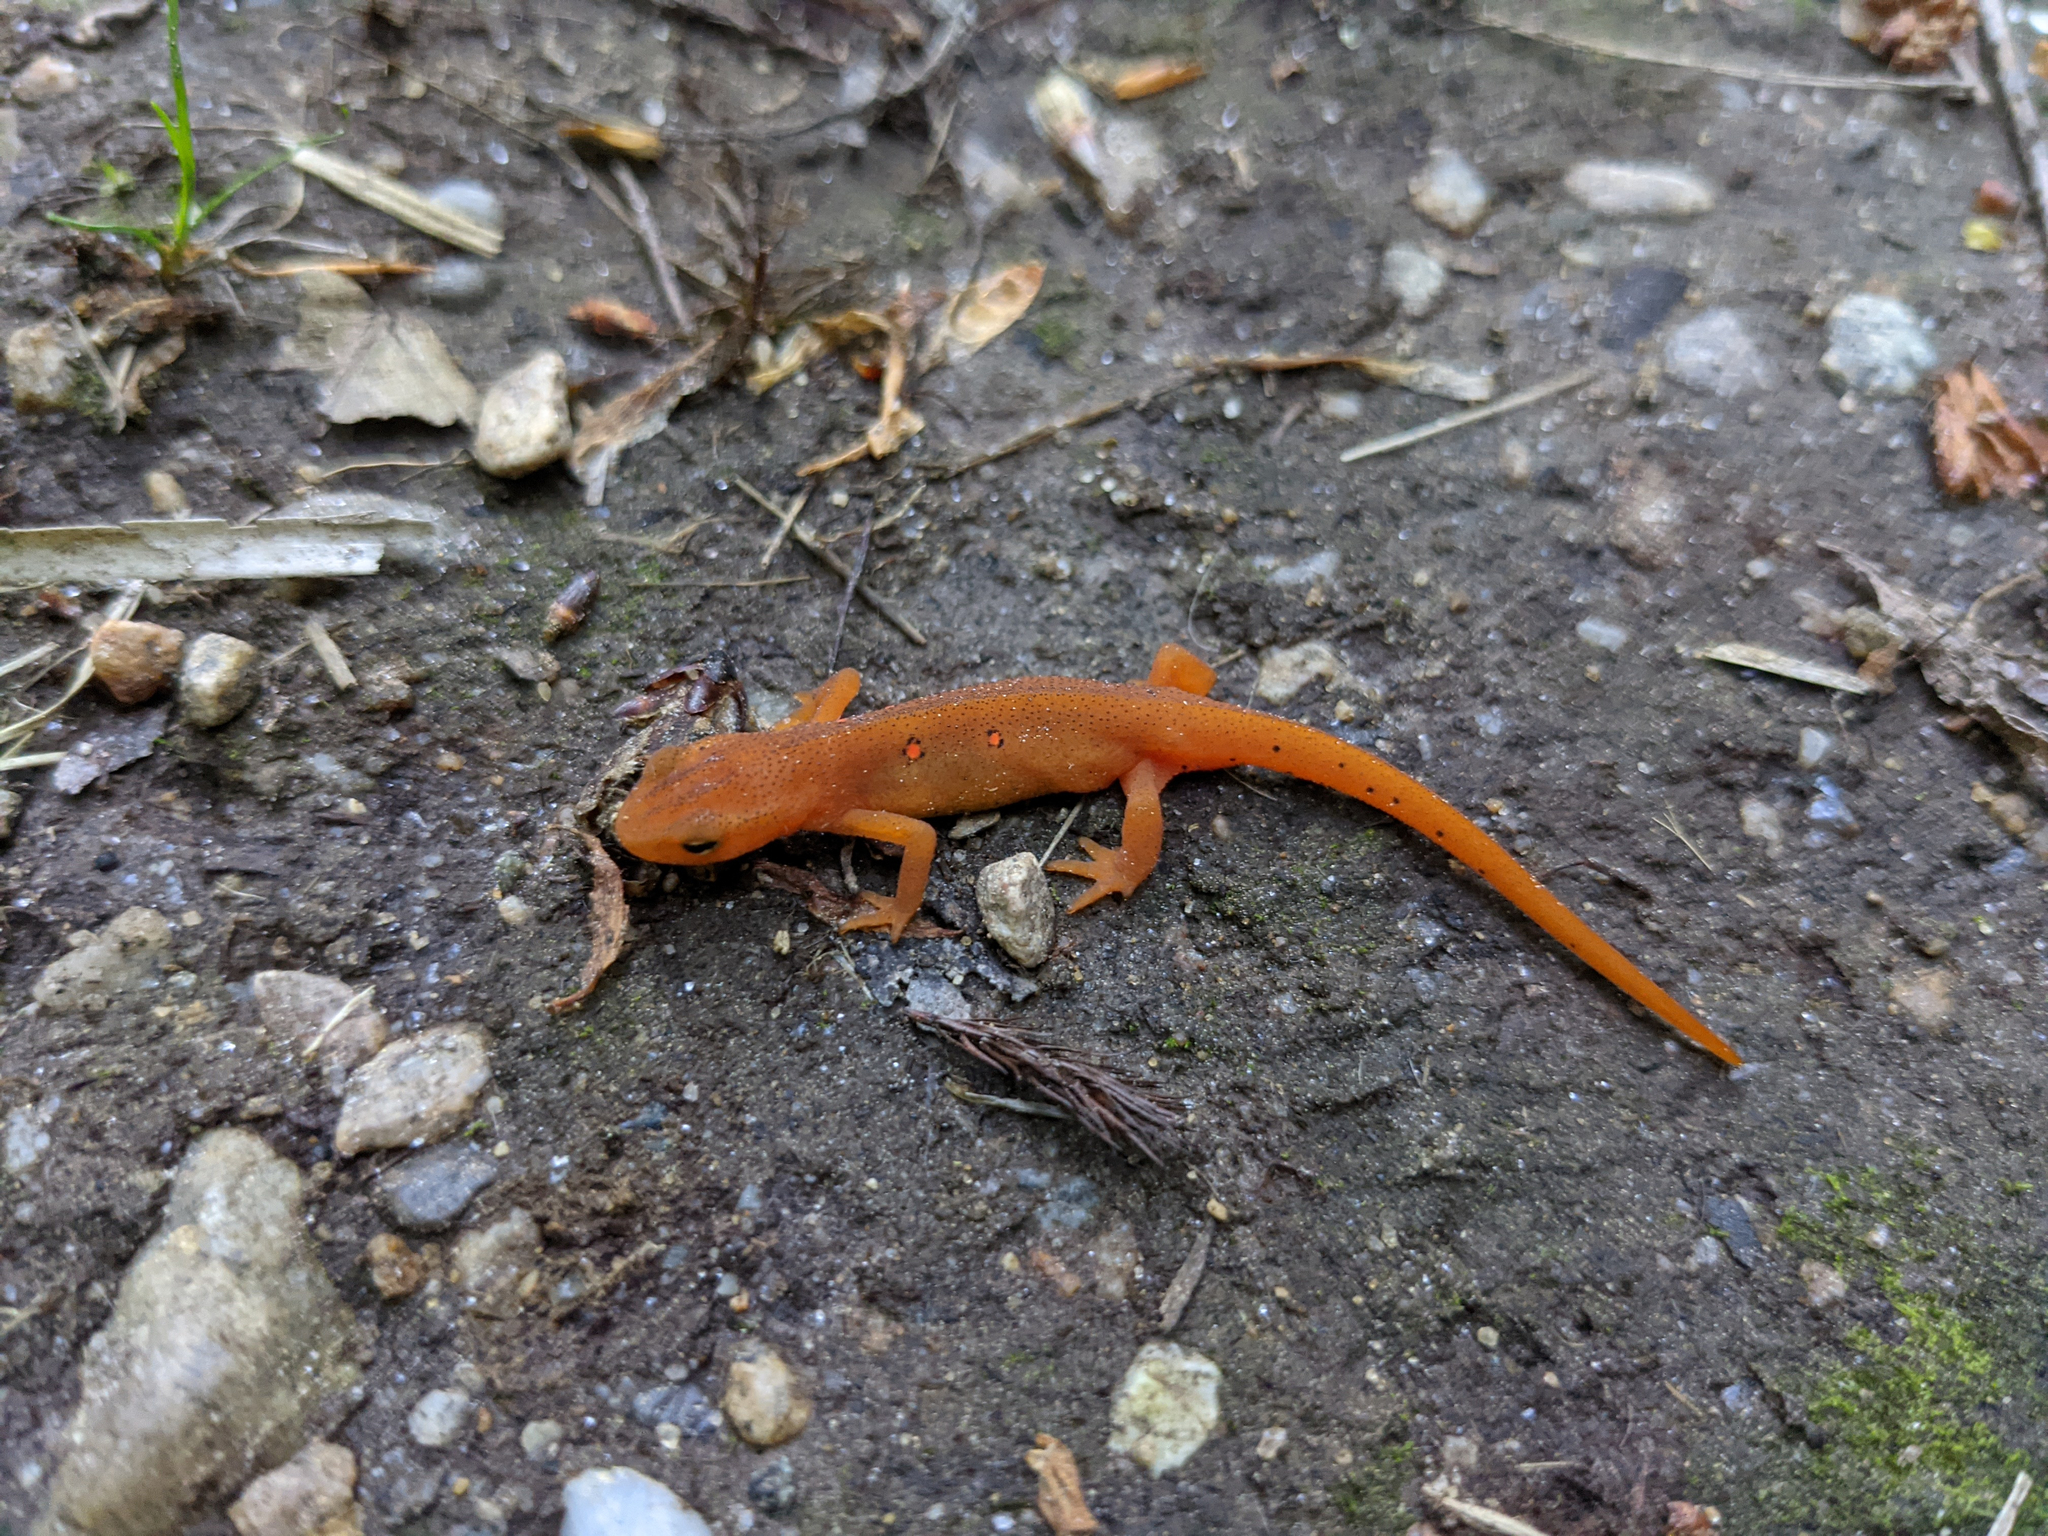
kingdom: Animalia
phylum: Chordata
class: Amphibia
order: Caudata
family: Salamandridae
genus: Notophthalmus
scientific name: Notophthalmus viridescens
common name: Eastern newt
